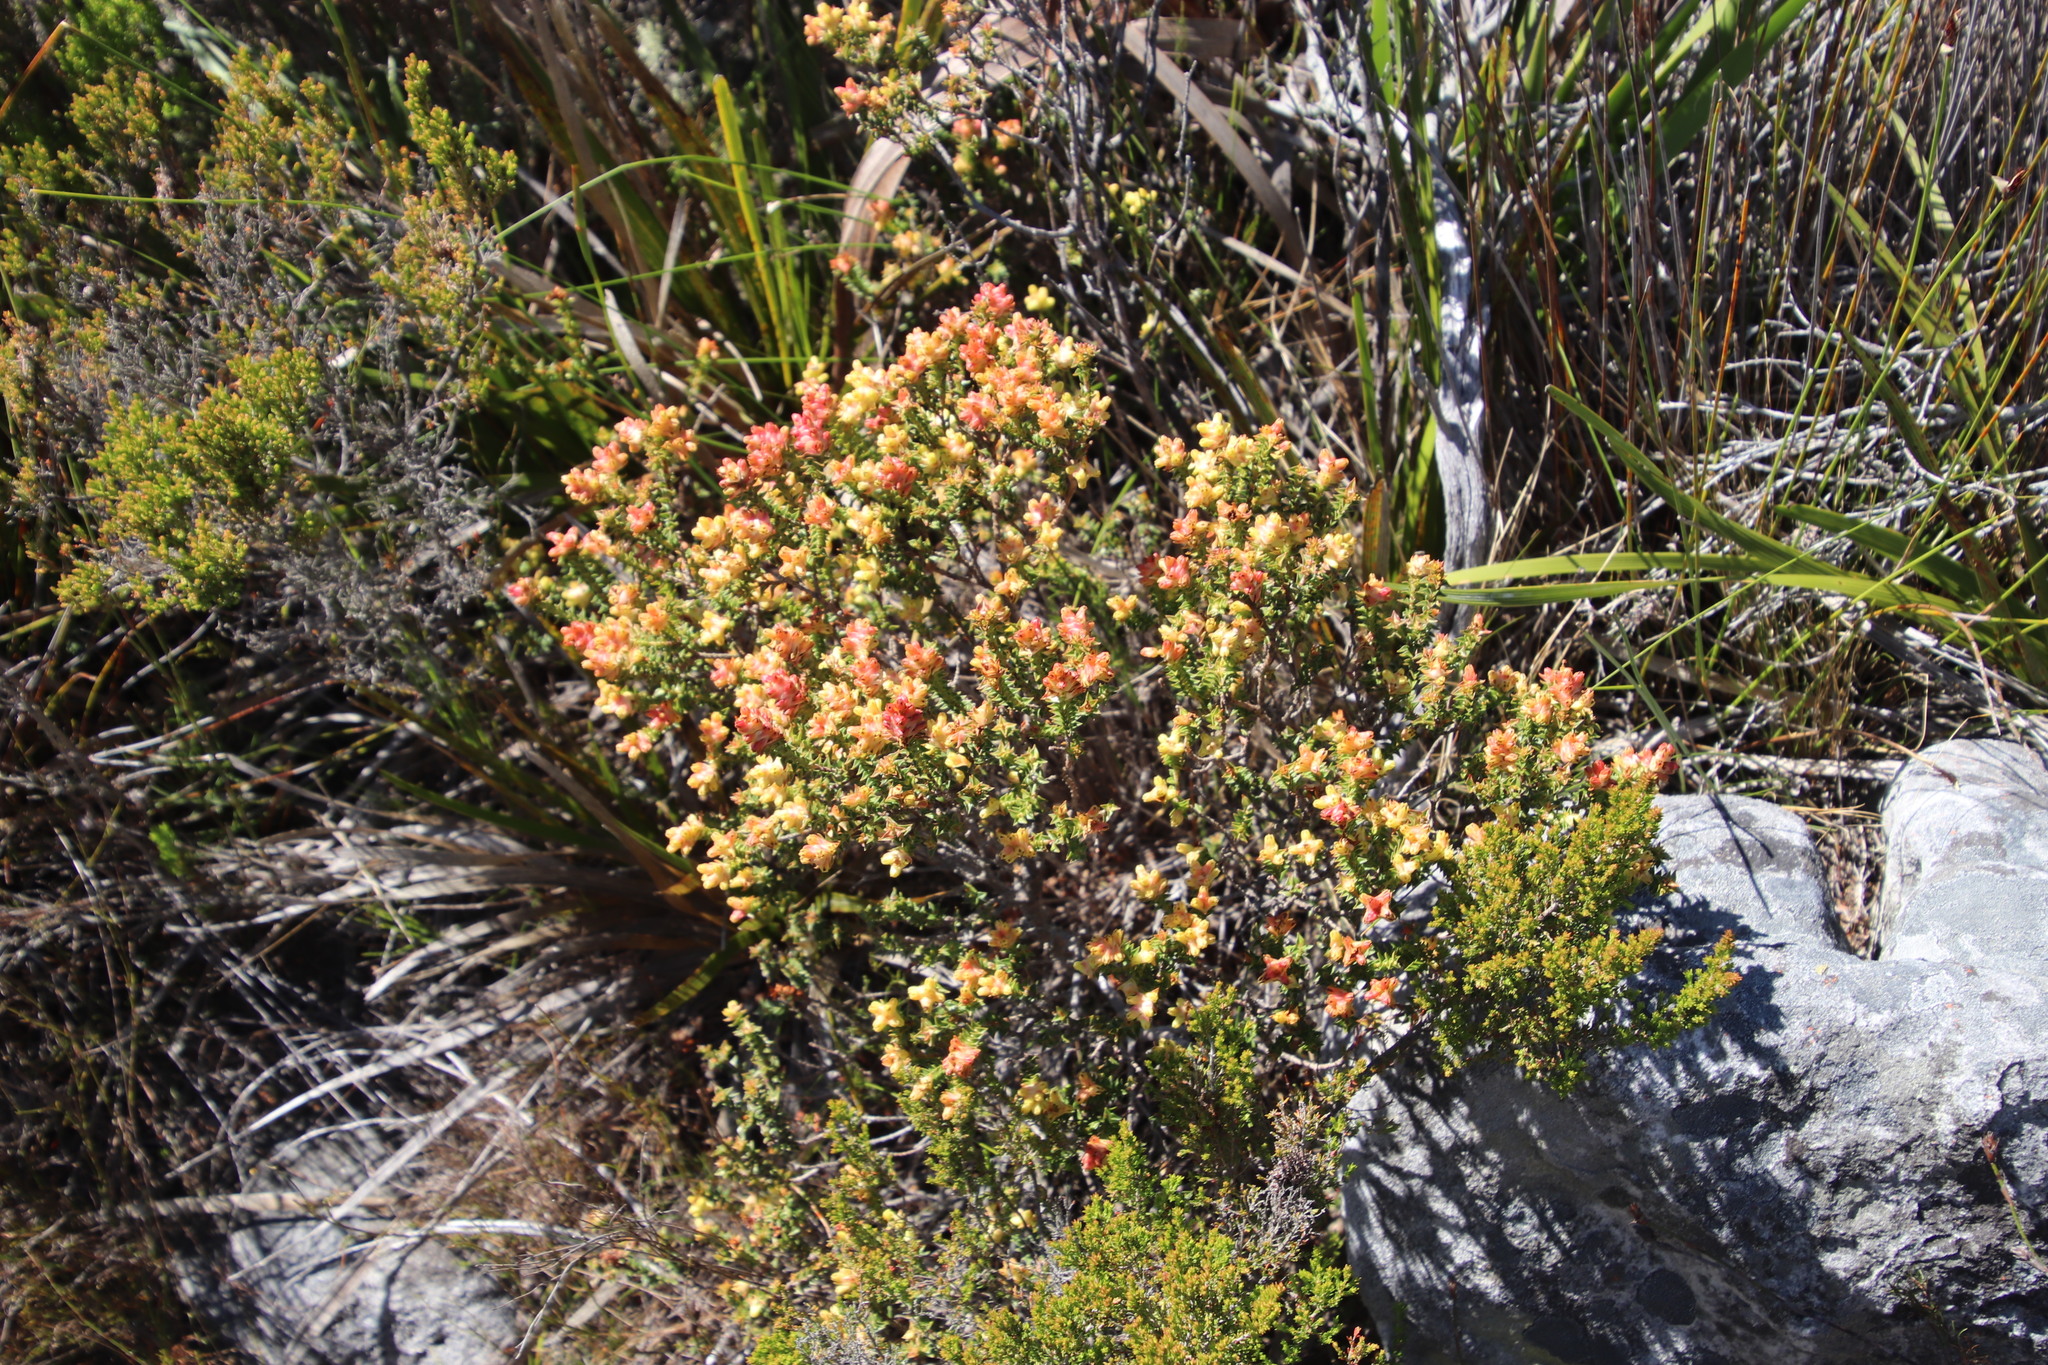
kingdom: Plantae
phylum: Tracheophyta
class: Magnoliopsida
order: Myrtales
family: Penaeaceae
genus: Penaea
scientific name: Penaea mucronata
